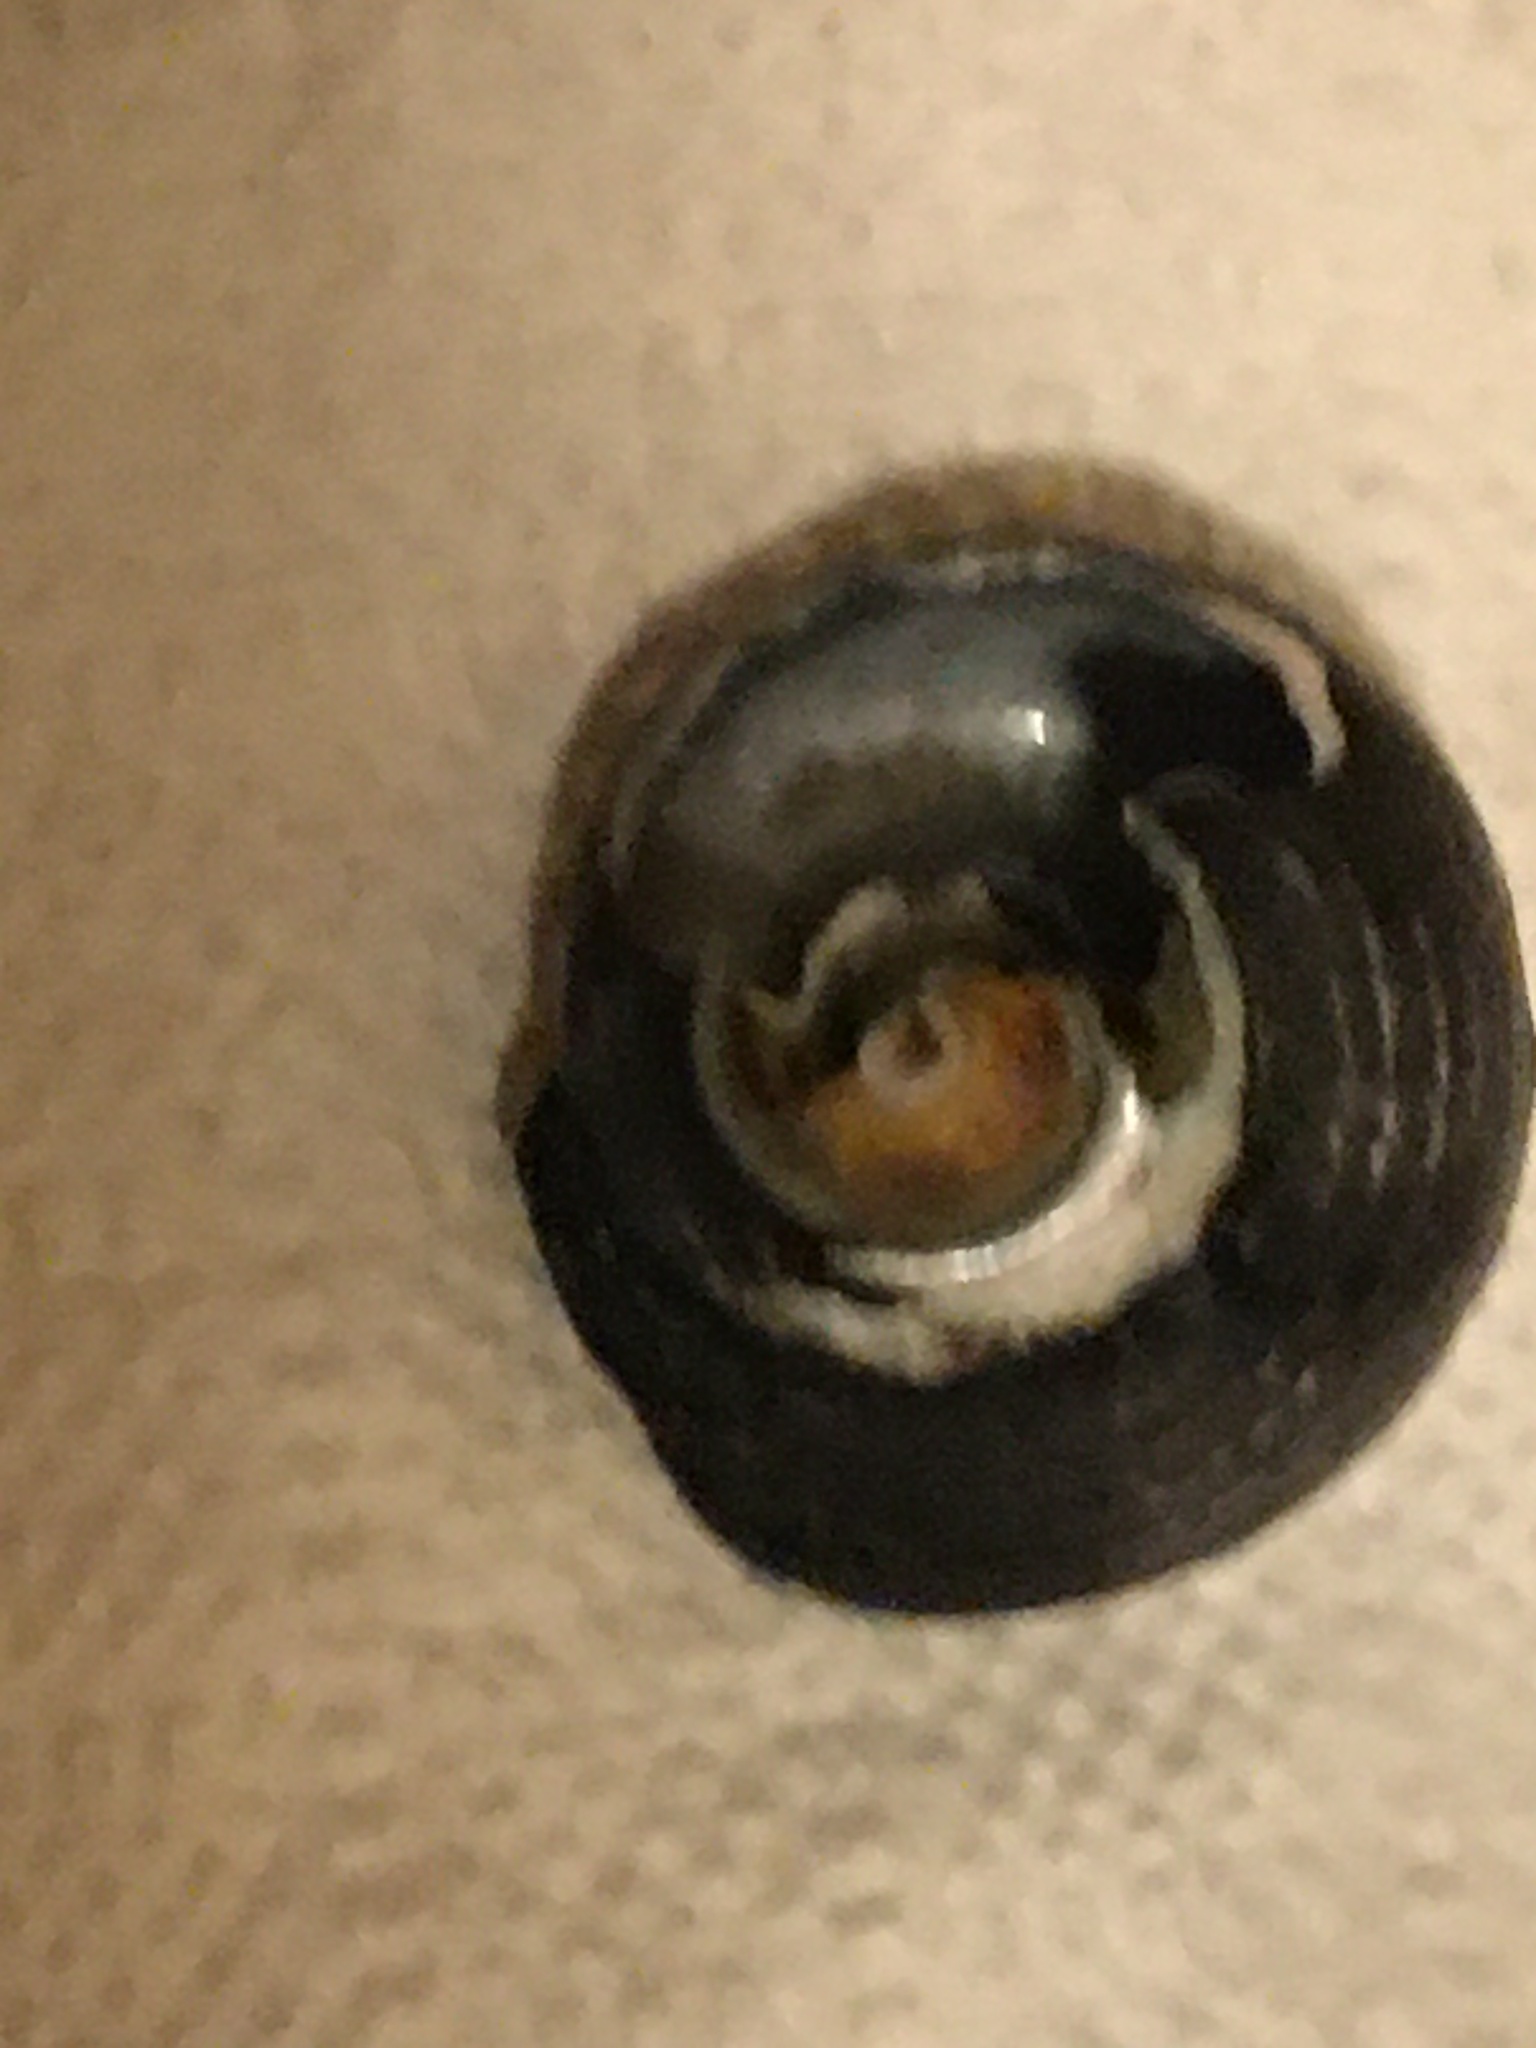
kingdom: Animalia
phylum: Mollusca
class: Gastropoda
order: Trochida
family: Tegulidae
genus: Tegula
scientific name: Tegula funebralis
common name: Black tegula
